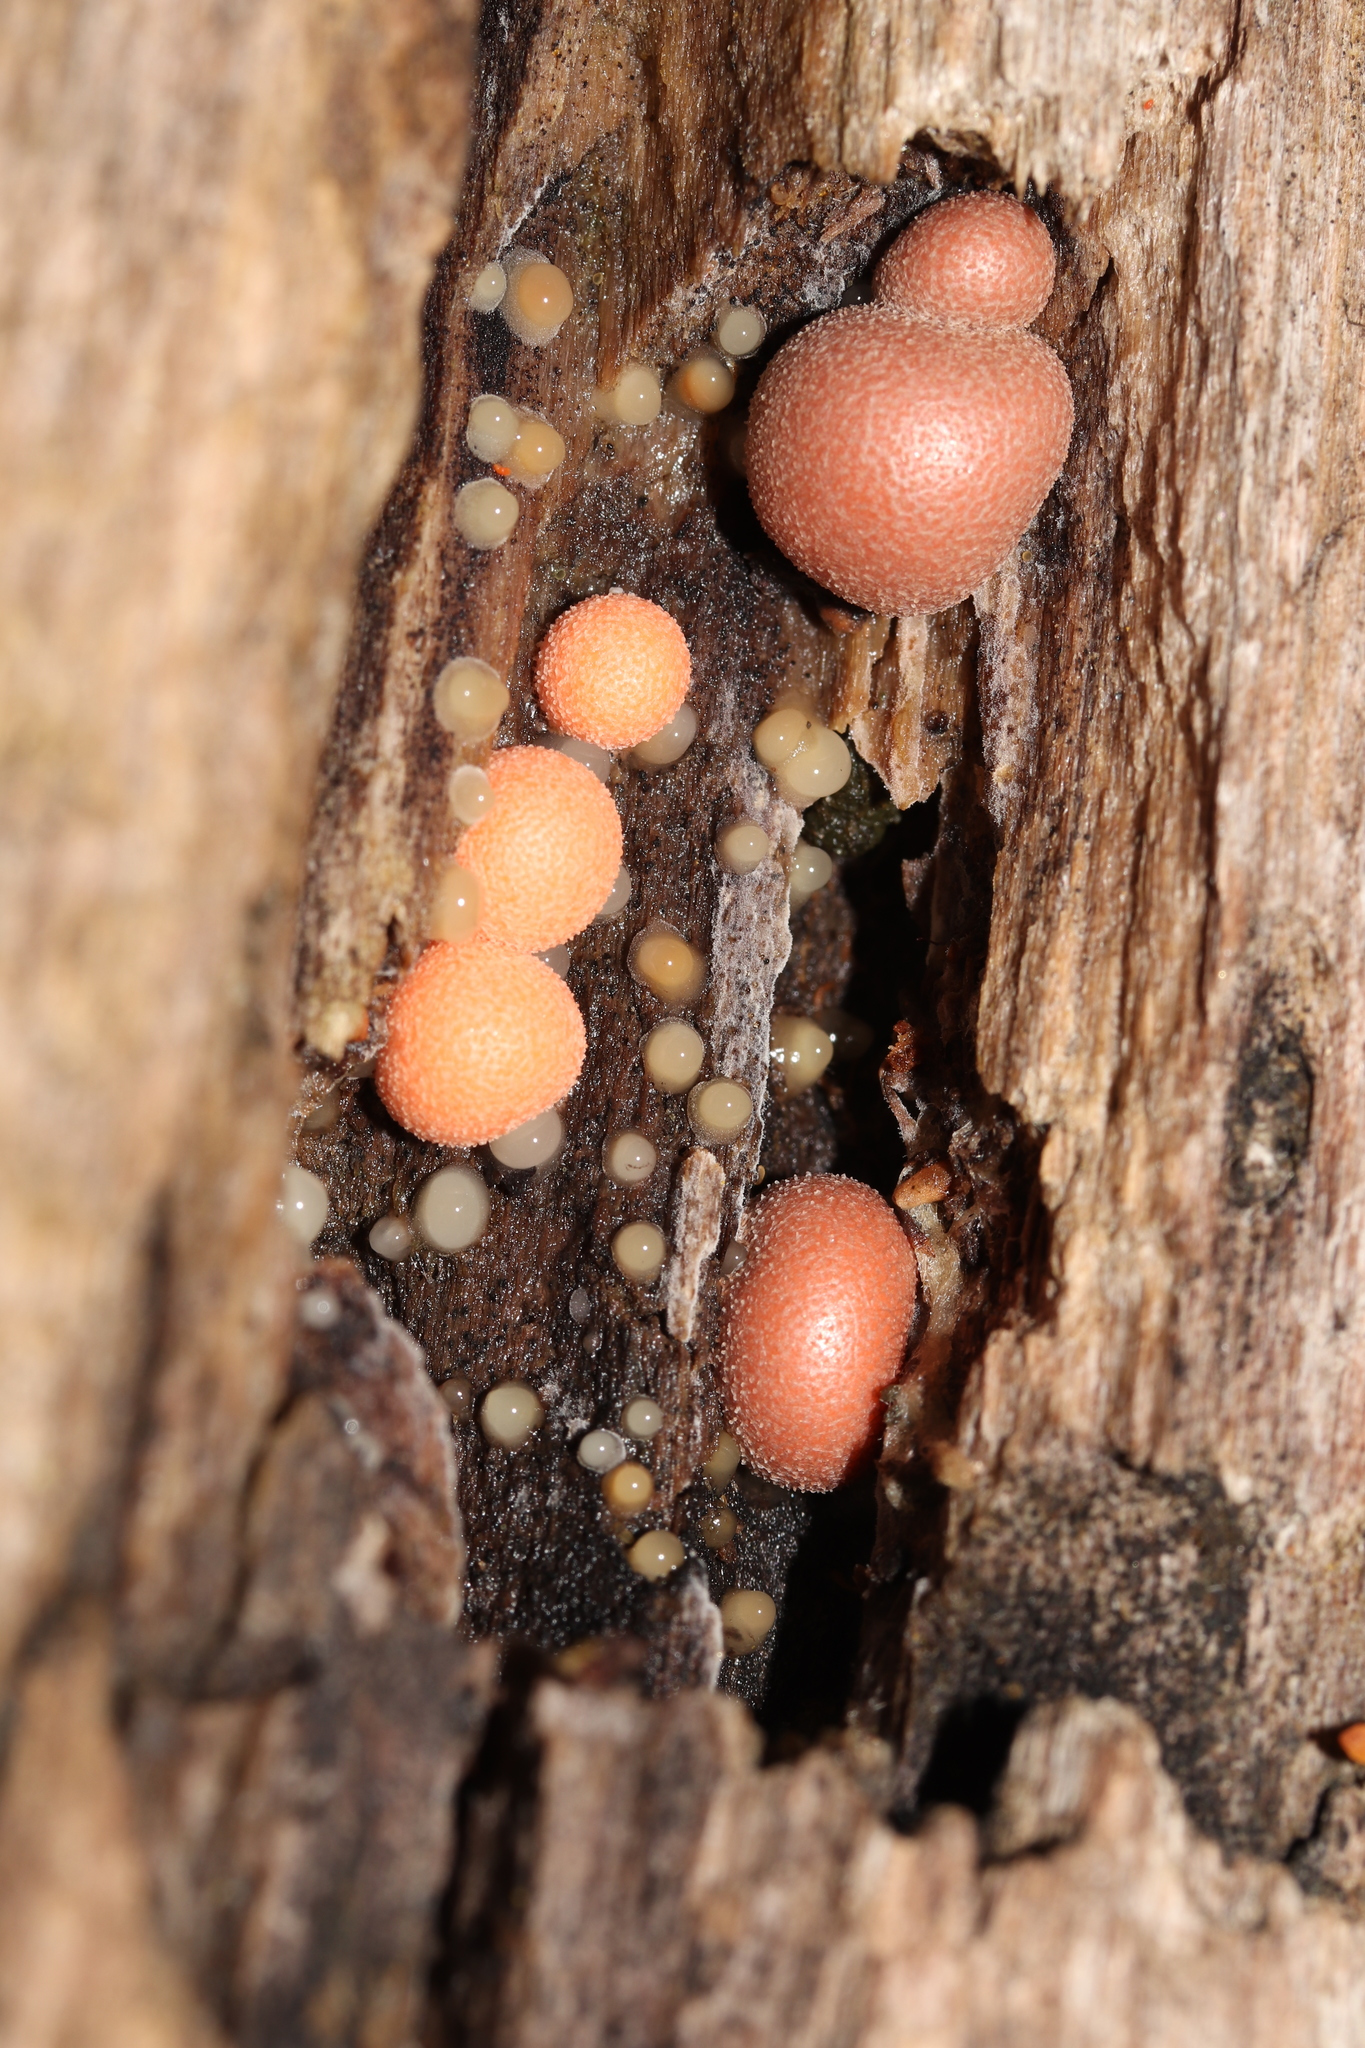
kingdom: Protozoa
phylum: Mycetozoa
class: Myxomycetes
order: Cribrariales
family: Tubiferaceae
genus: Lycogala
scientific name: Lycogala epidendrum
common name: Wolf's milk
